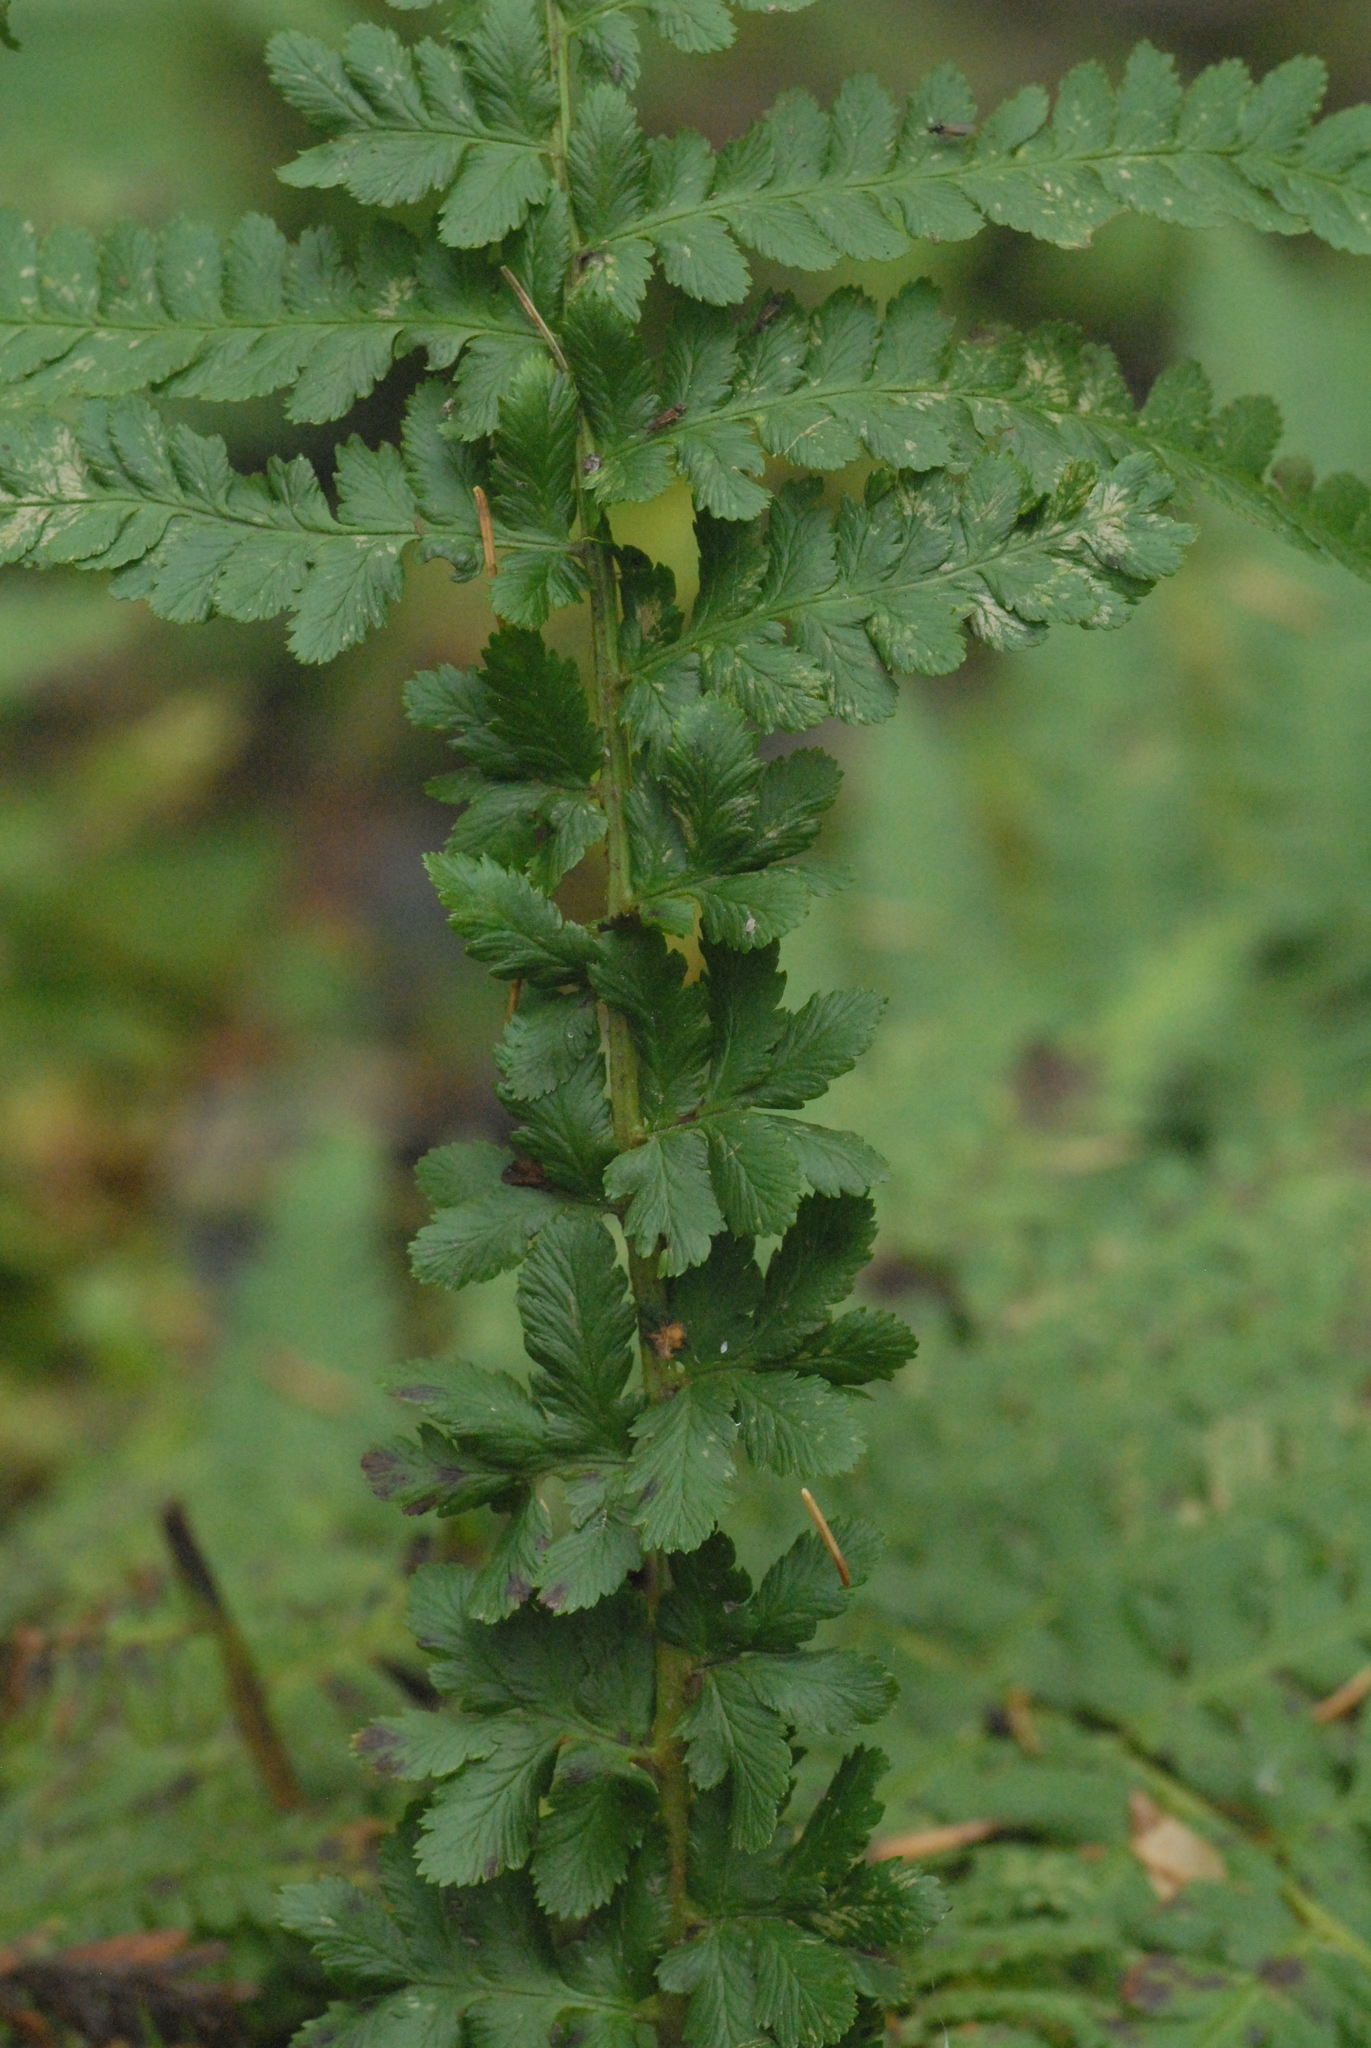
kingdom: Plantae
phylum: Tracheophyta
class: Polypodiopsida
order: Polypodiales
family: Dryopteridaceae
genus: Dryopteris
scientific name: Dryopteris filix-mas
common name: Male fern
